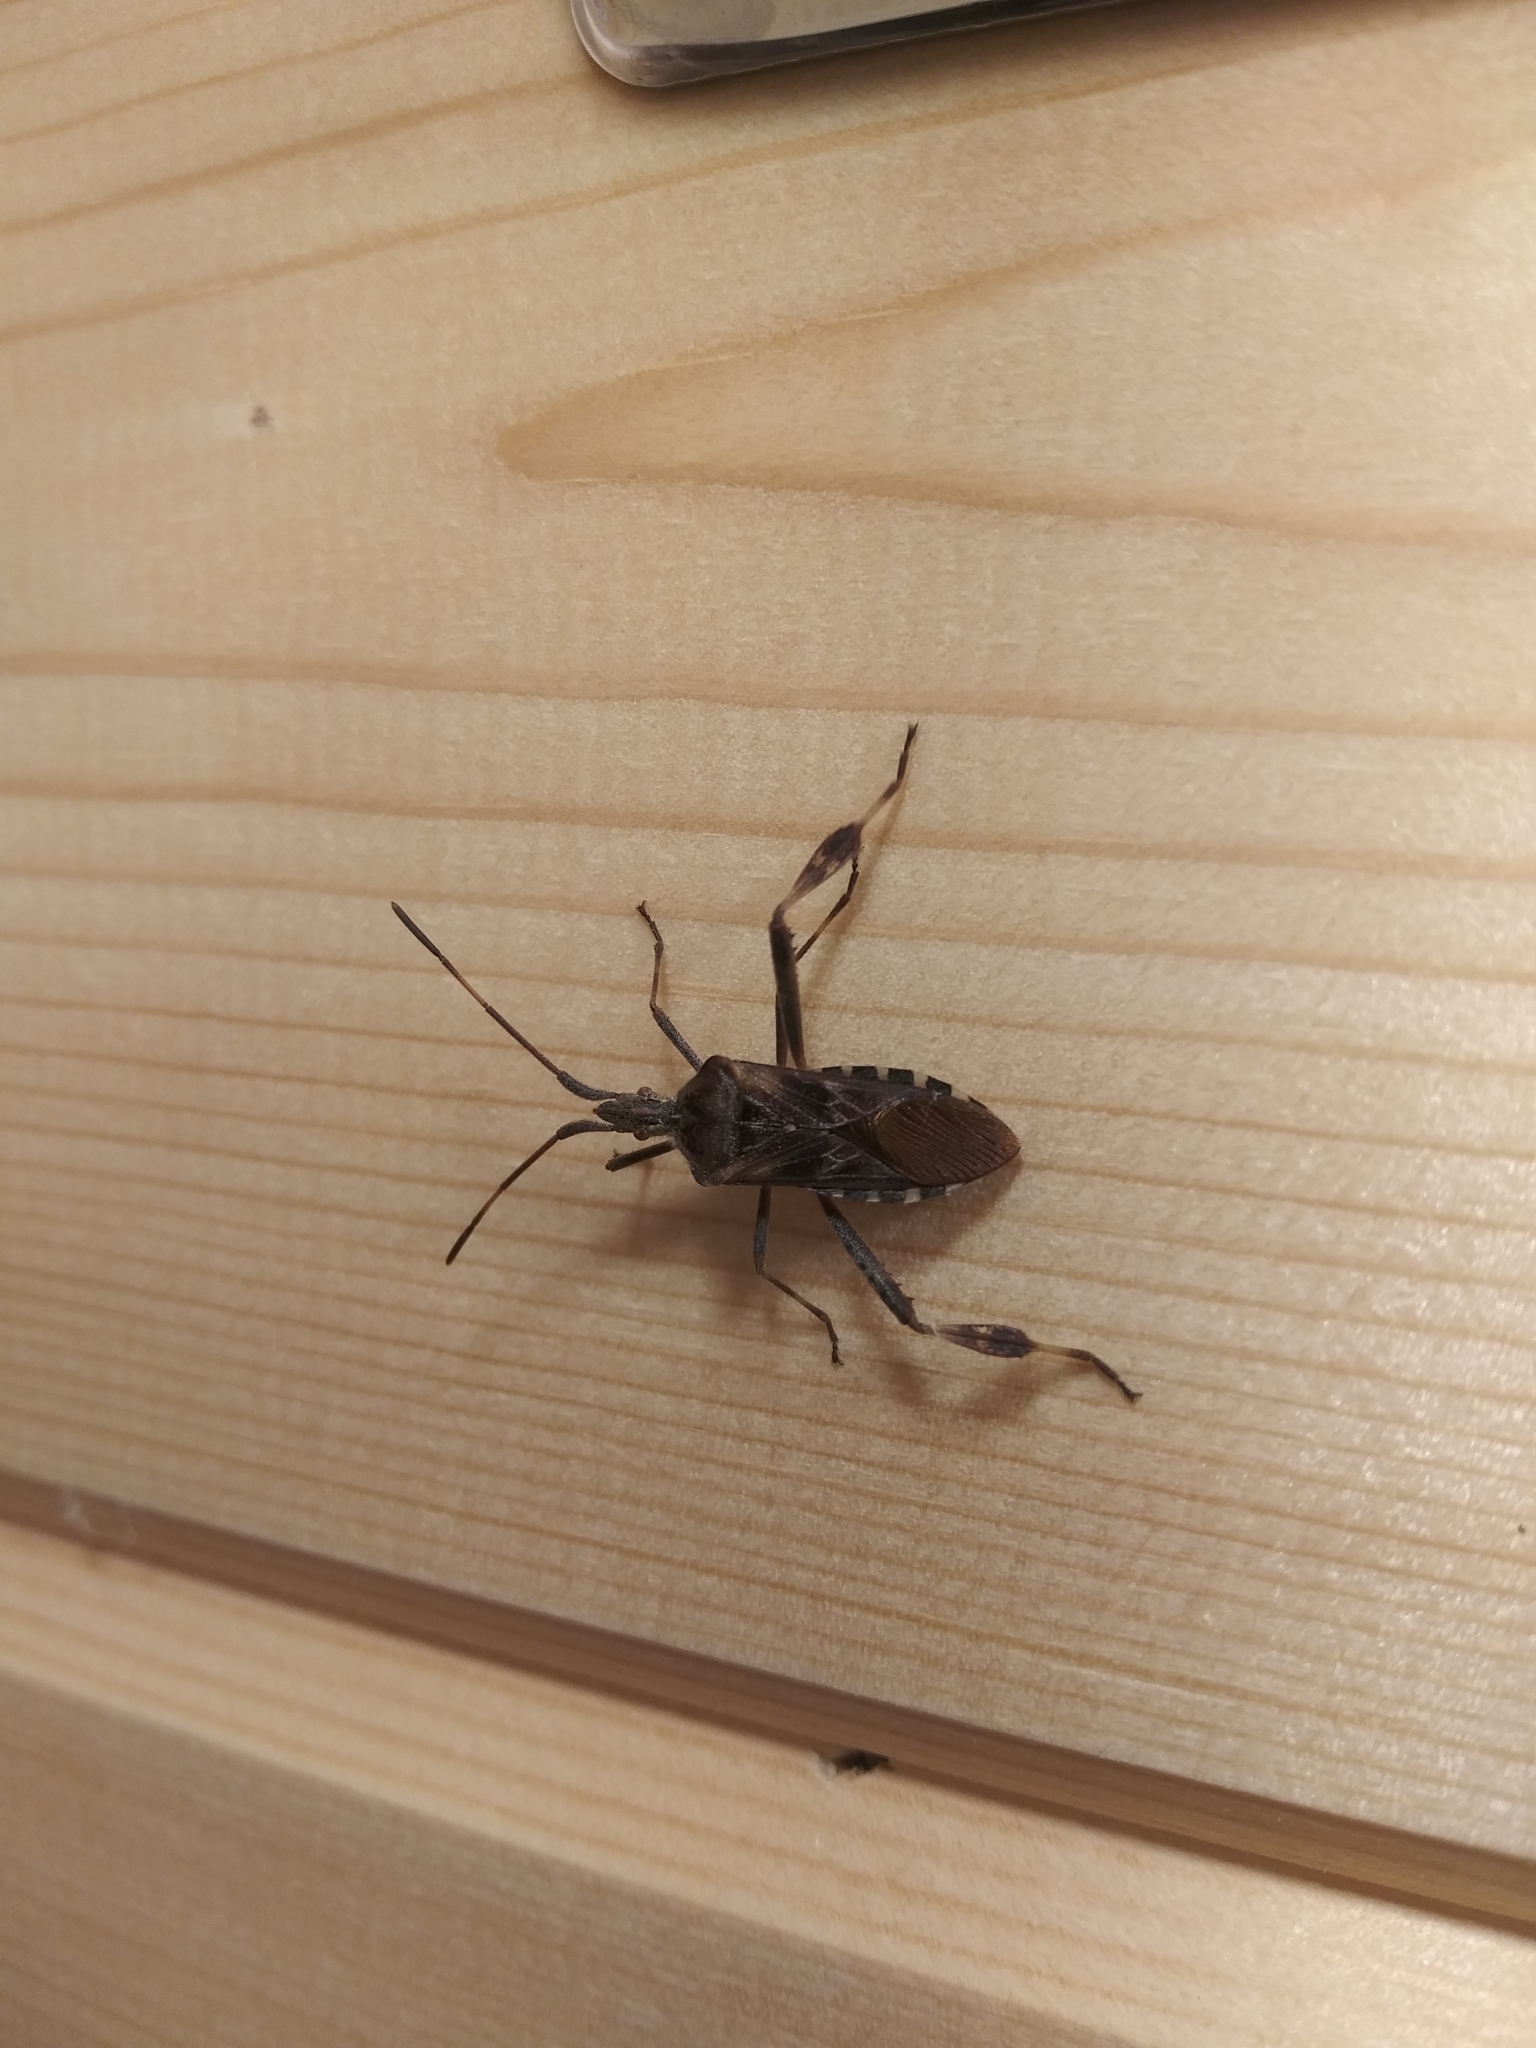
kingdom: Animalia
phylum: Arthropoda
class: Insecta
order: Hemiptera
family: Coreidae
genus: Leptoglossus
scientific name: Leptoglossus occidentalis
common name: Western conifer-seed bug
